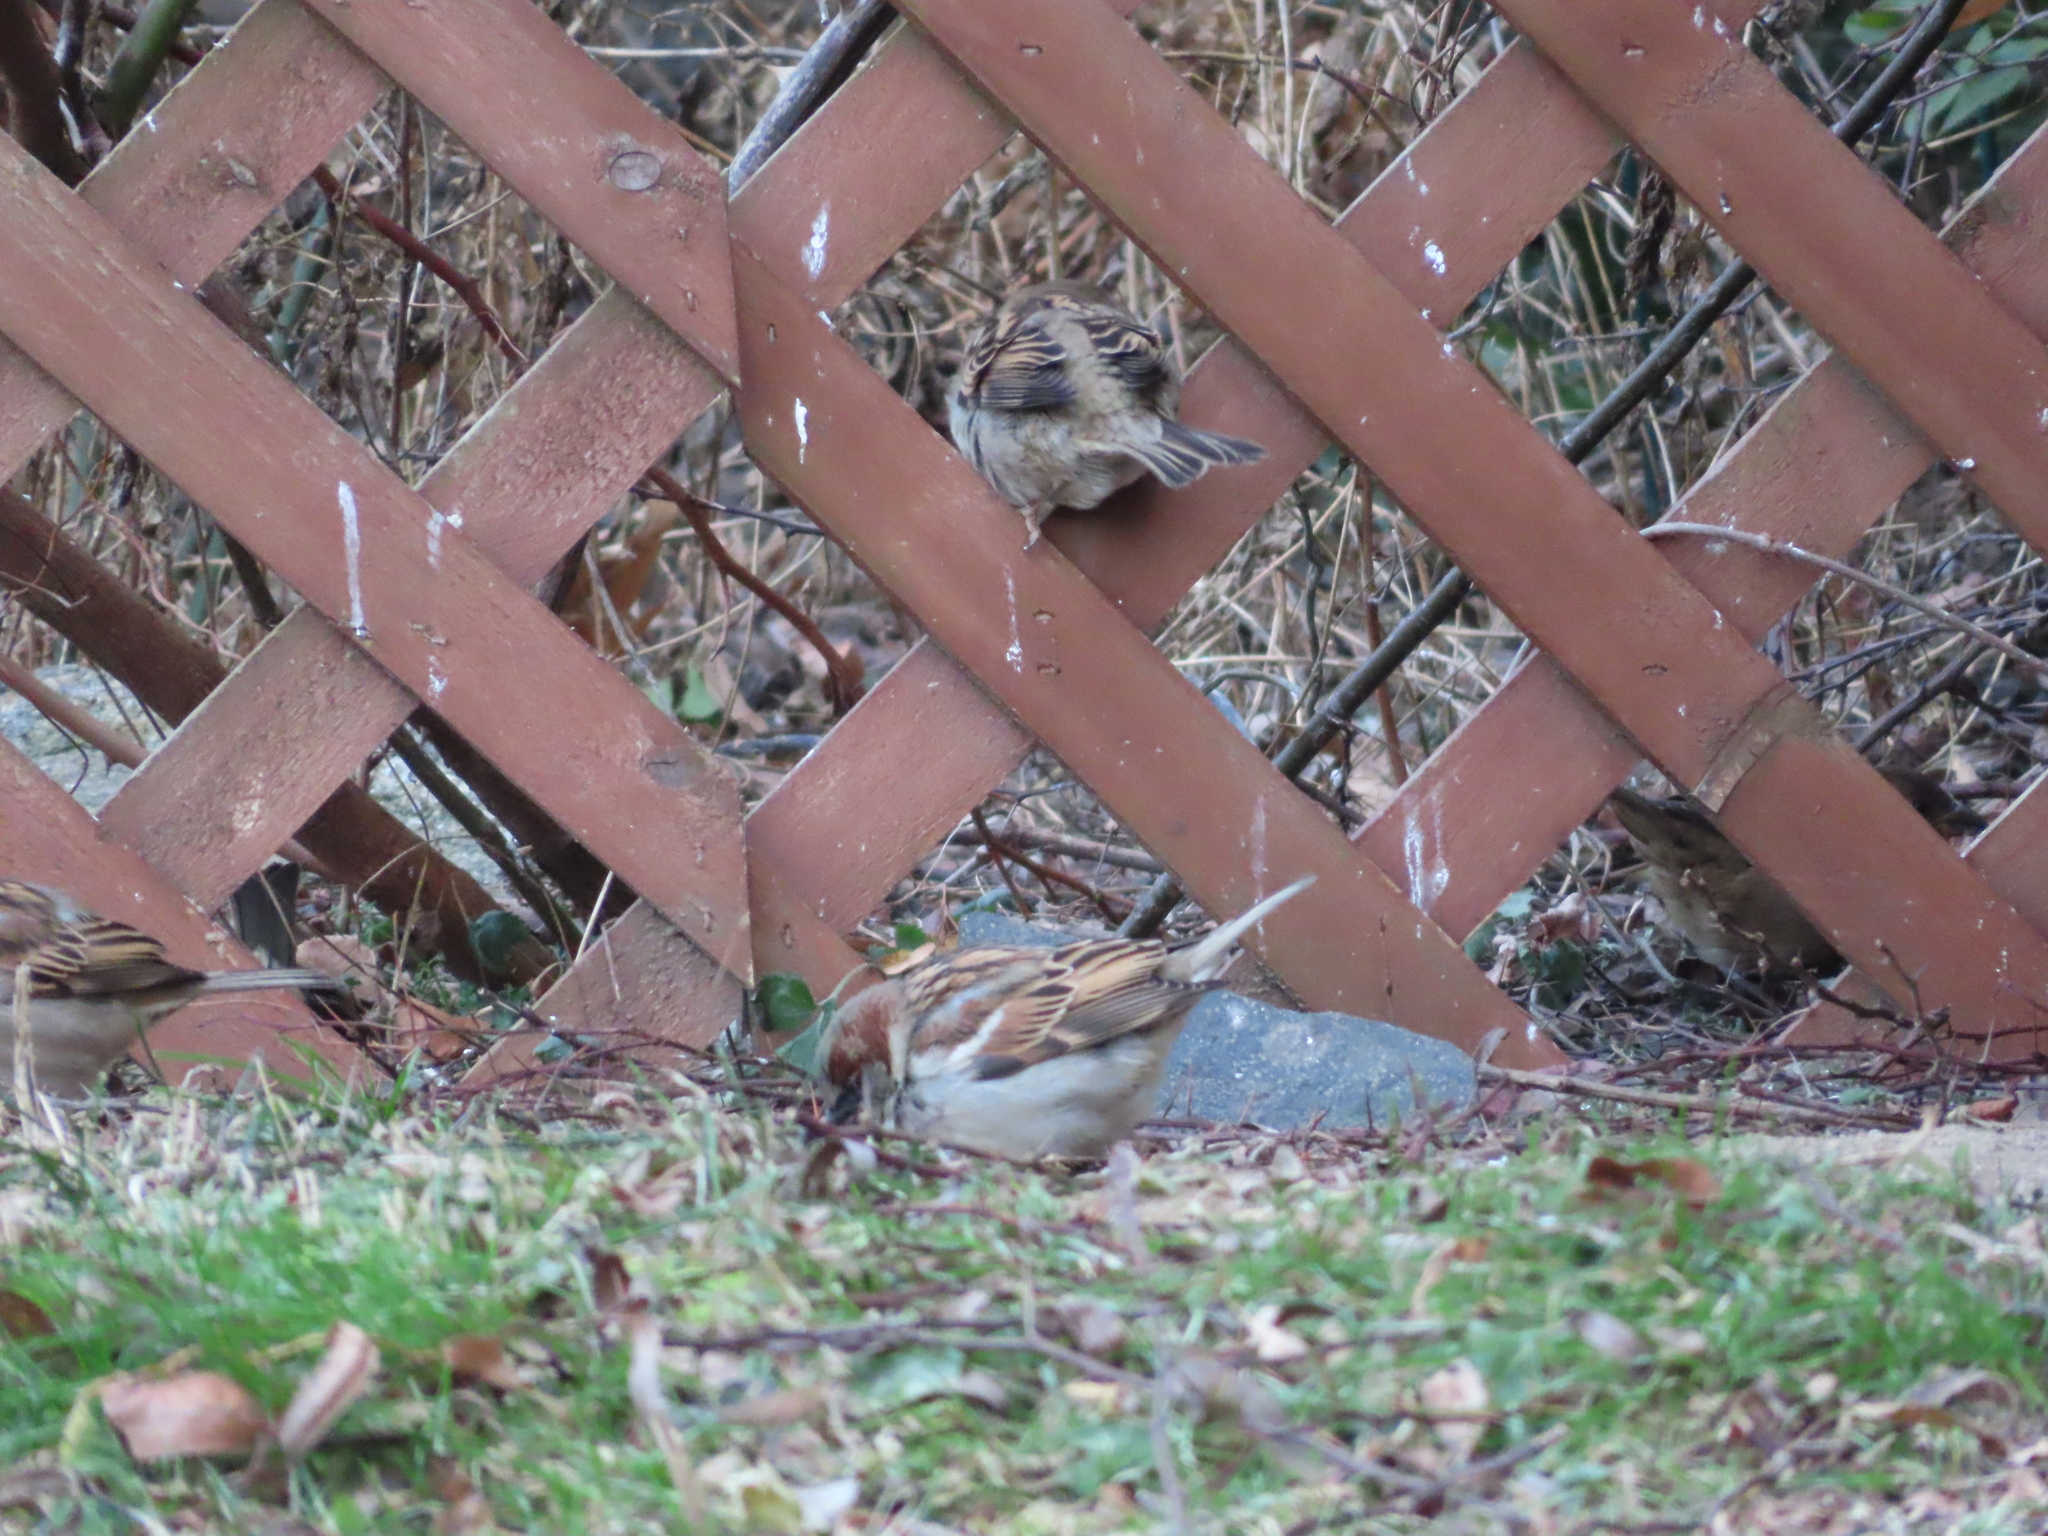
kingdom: Animalia
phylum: Chordata
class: Aves
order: Passeriformes
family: Passeridae
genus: Passer
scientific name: Passer domesticus
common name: House sparrow
